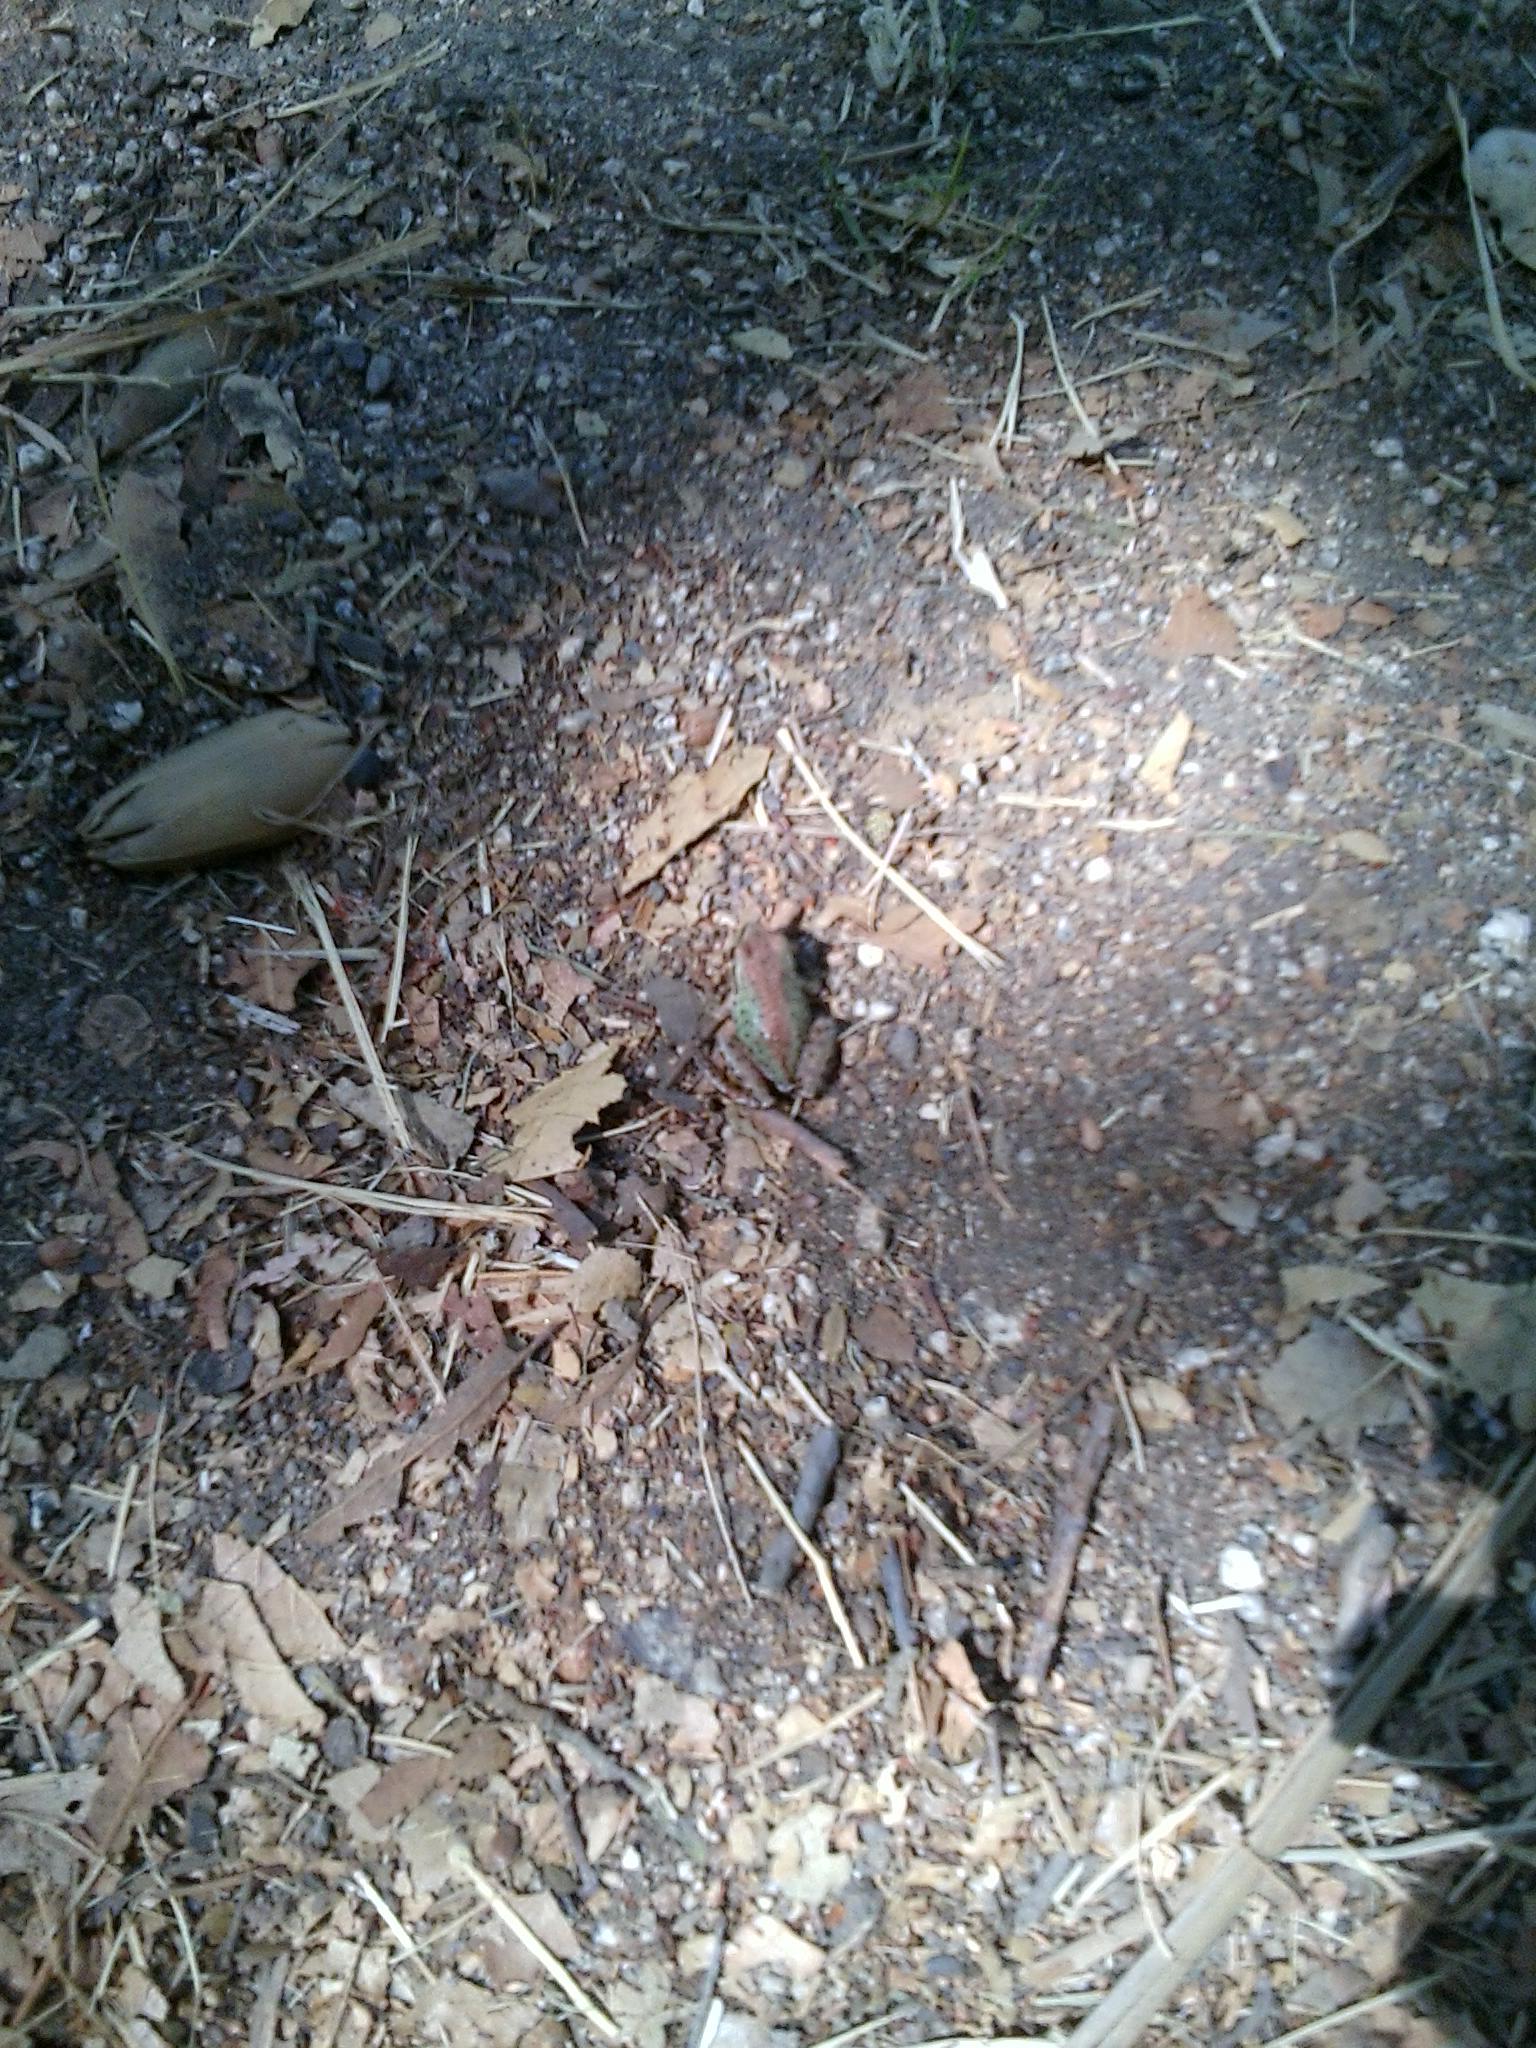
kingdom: Animalia
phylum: Chordata
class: Amphibia
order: Anura
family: Hylidae
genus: Pseudacris
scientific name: Pseudacris regilla
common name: Pacific chorus frog
